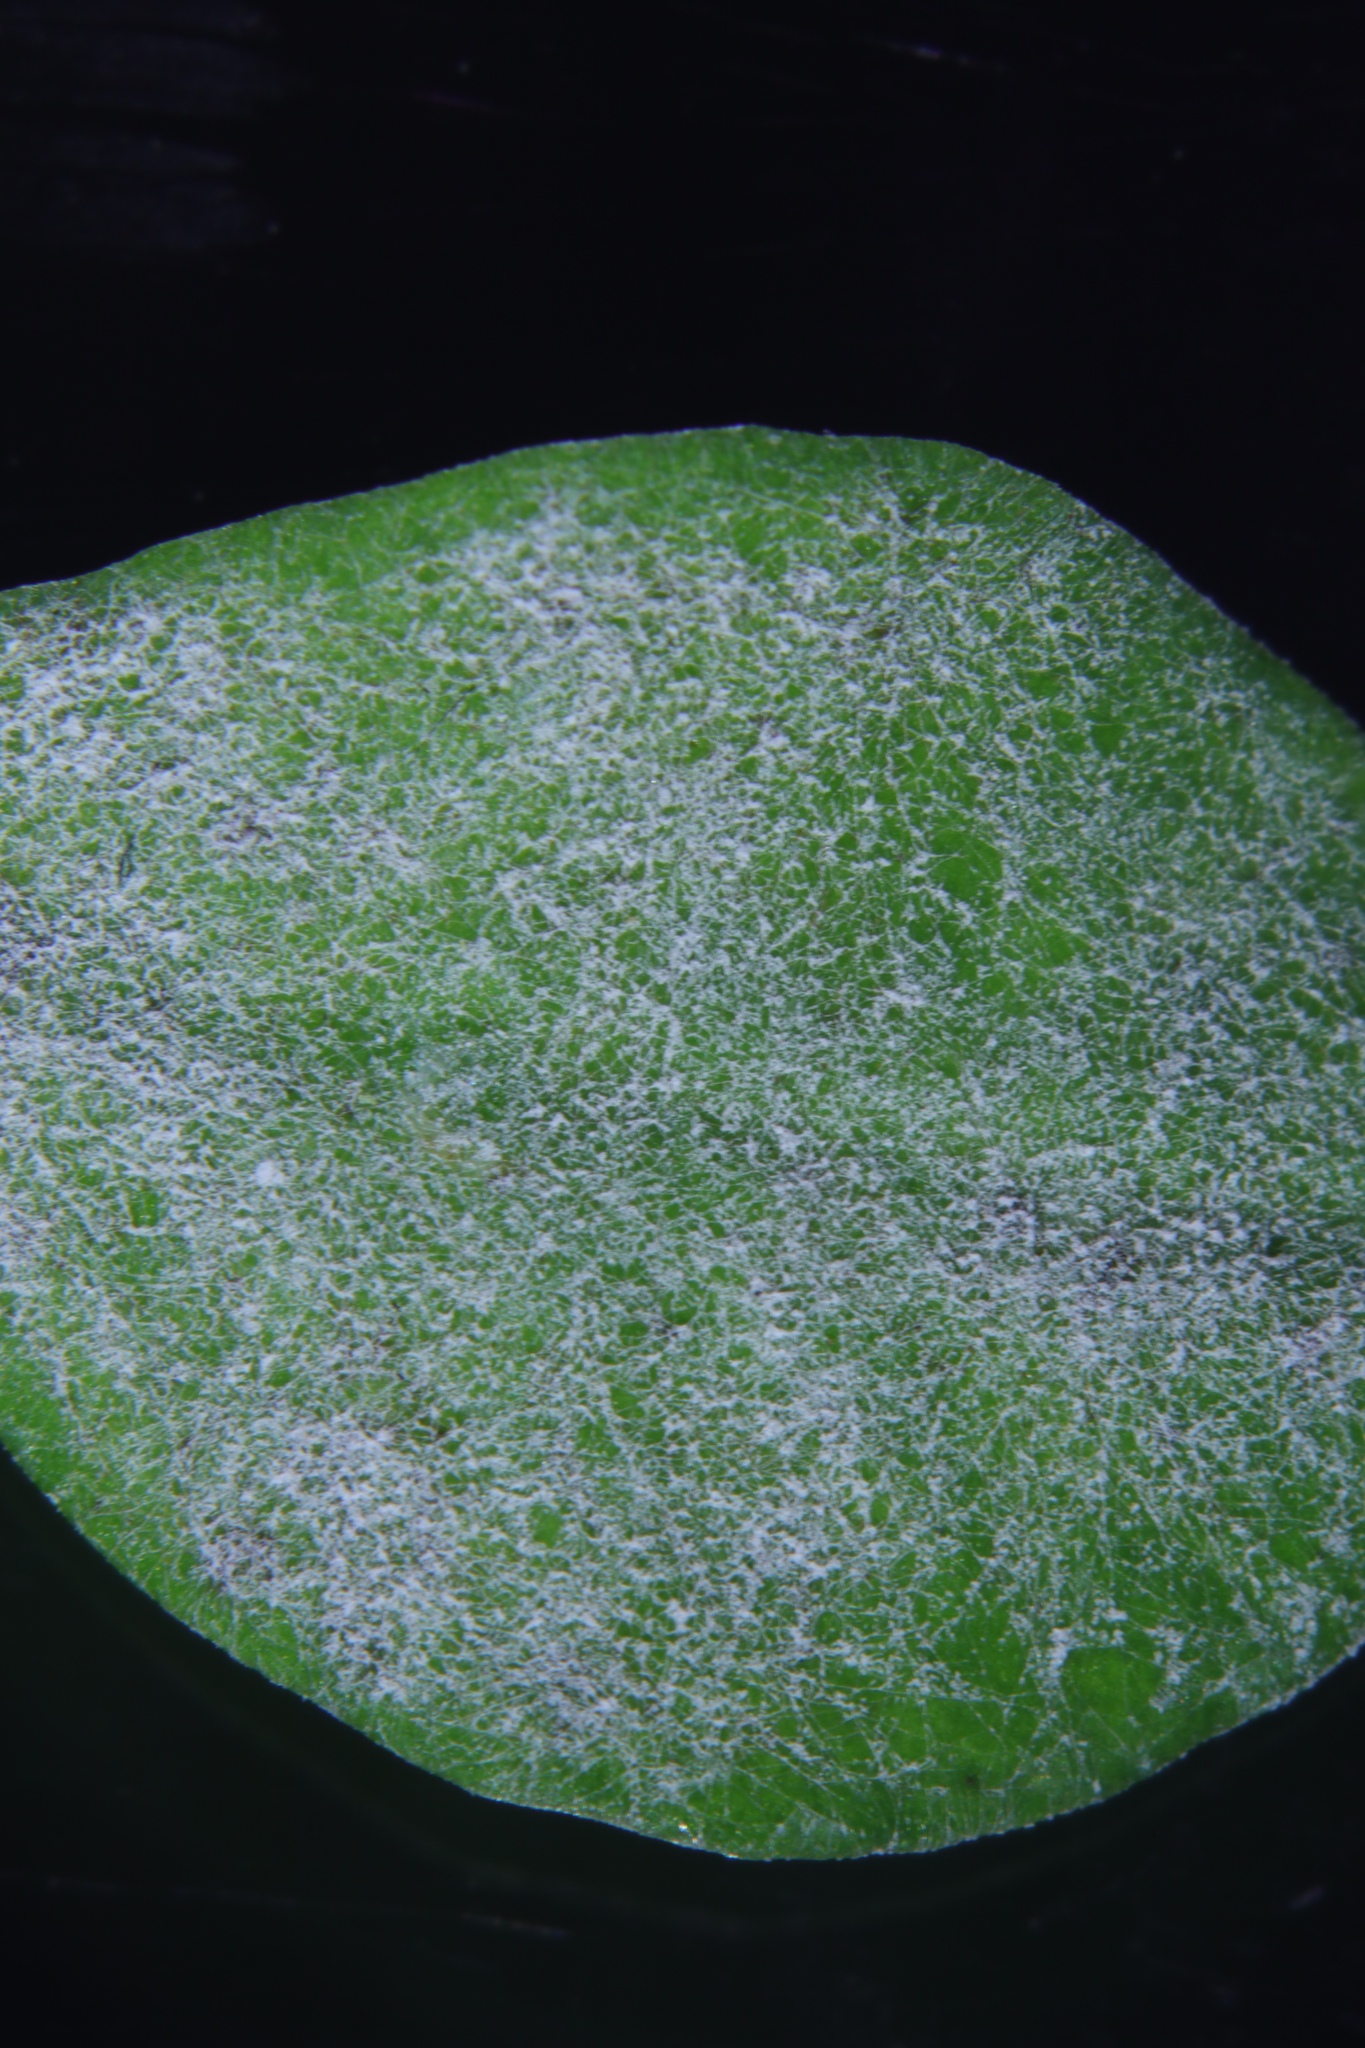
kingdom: Fungi
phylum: Ascomycota
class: Leotiomycetes
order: Helotiales
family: Erysiphaceae
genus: Pseudoidium
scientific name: Pseudoidium hardenbergiae
